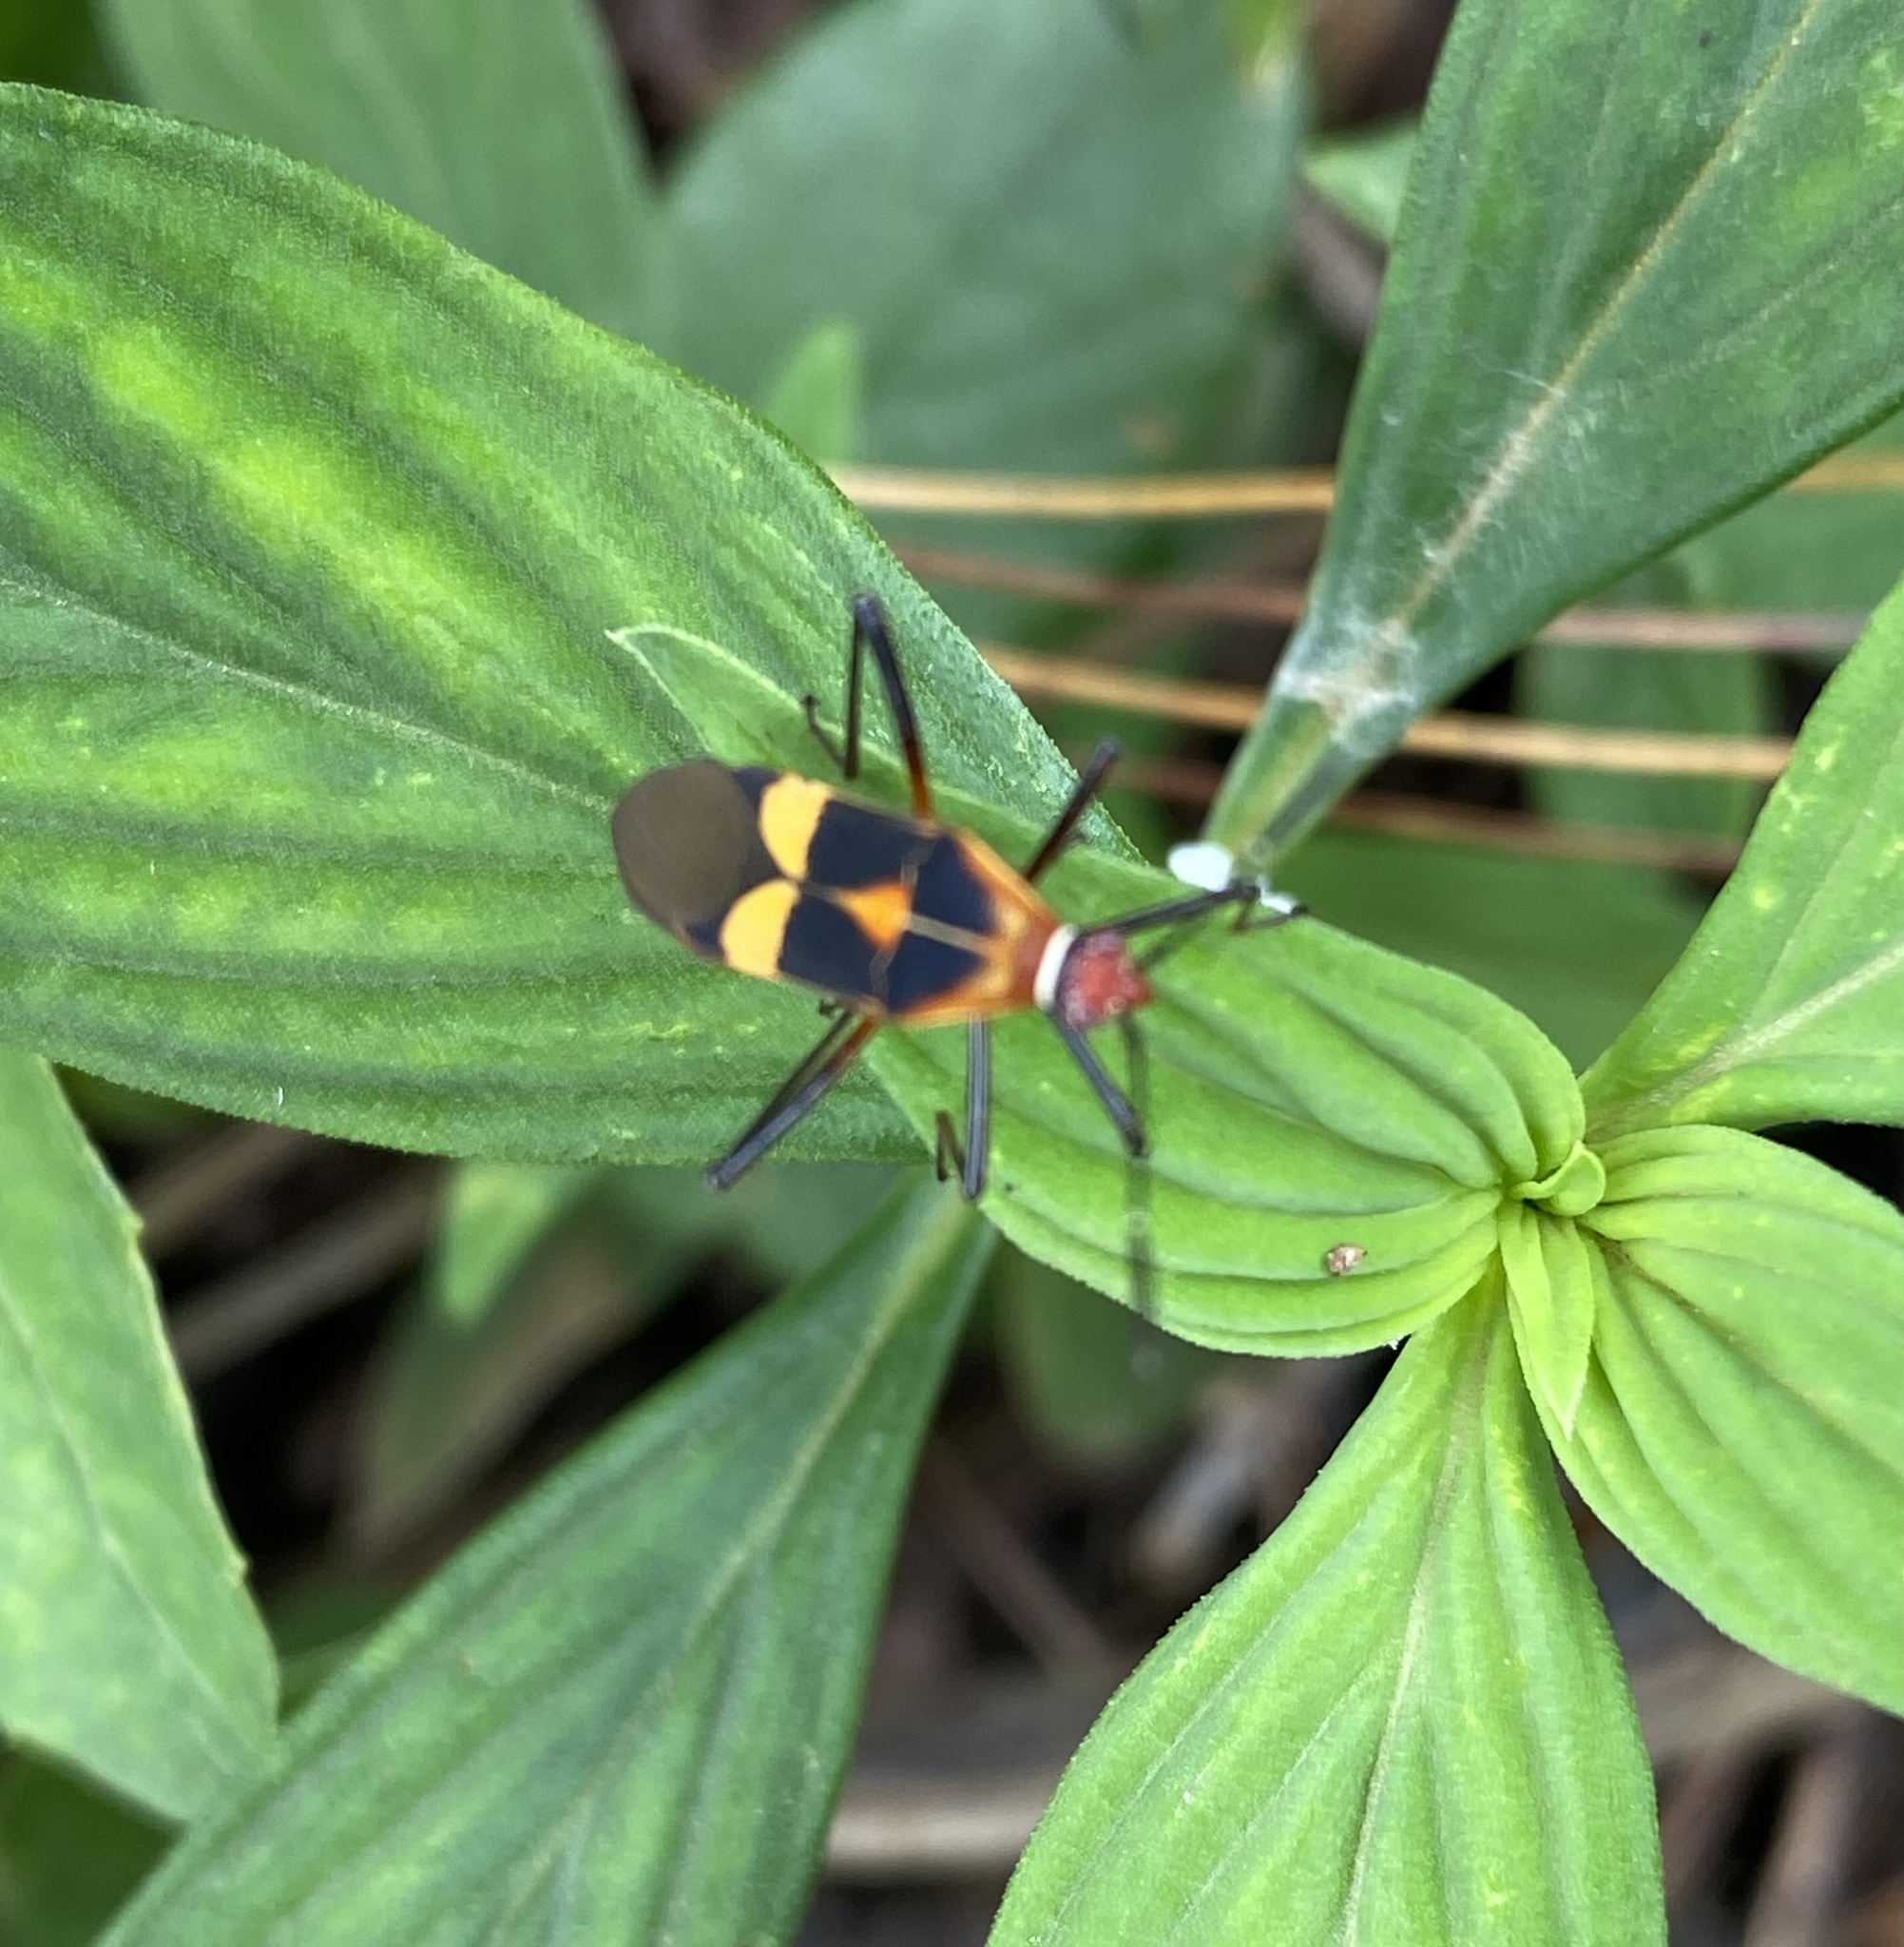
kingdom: Animalia
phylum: Arthropoda
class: Insecta
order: Hemiptera
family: Coreidae
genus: Hypselonotus
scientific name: Hypselonotus interruptus
